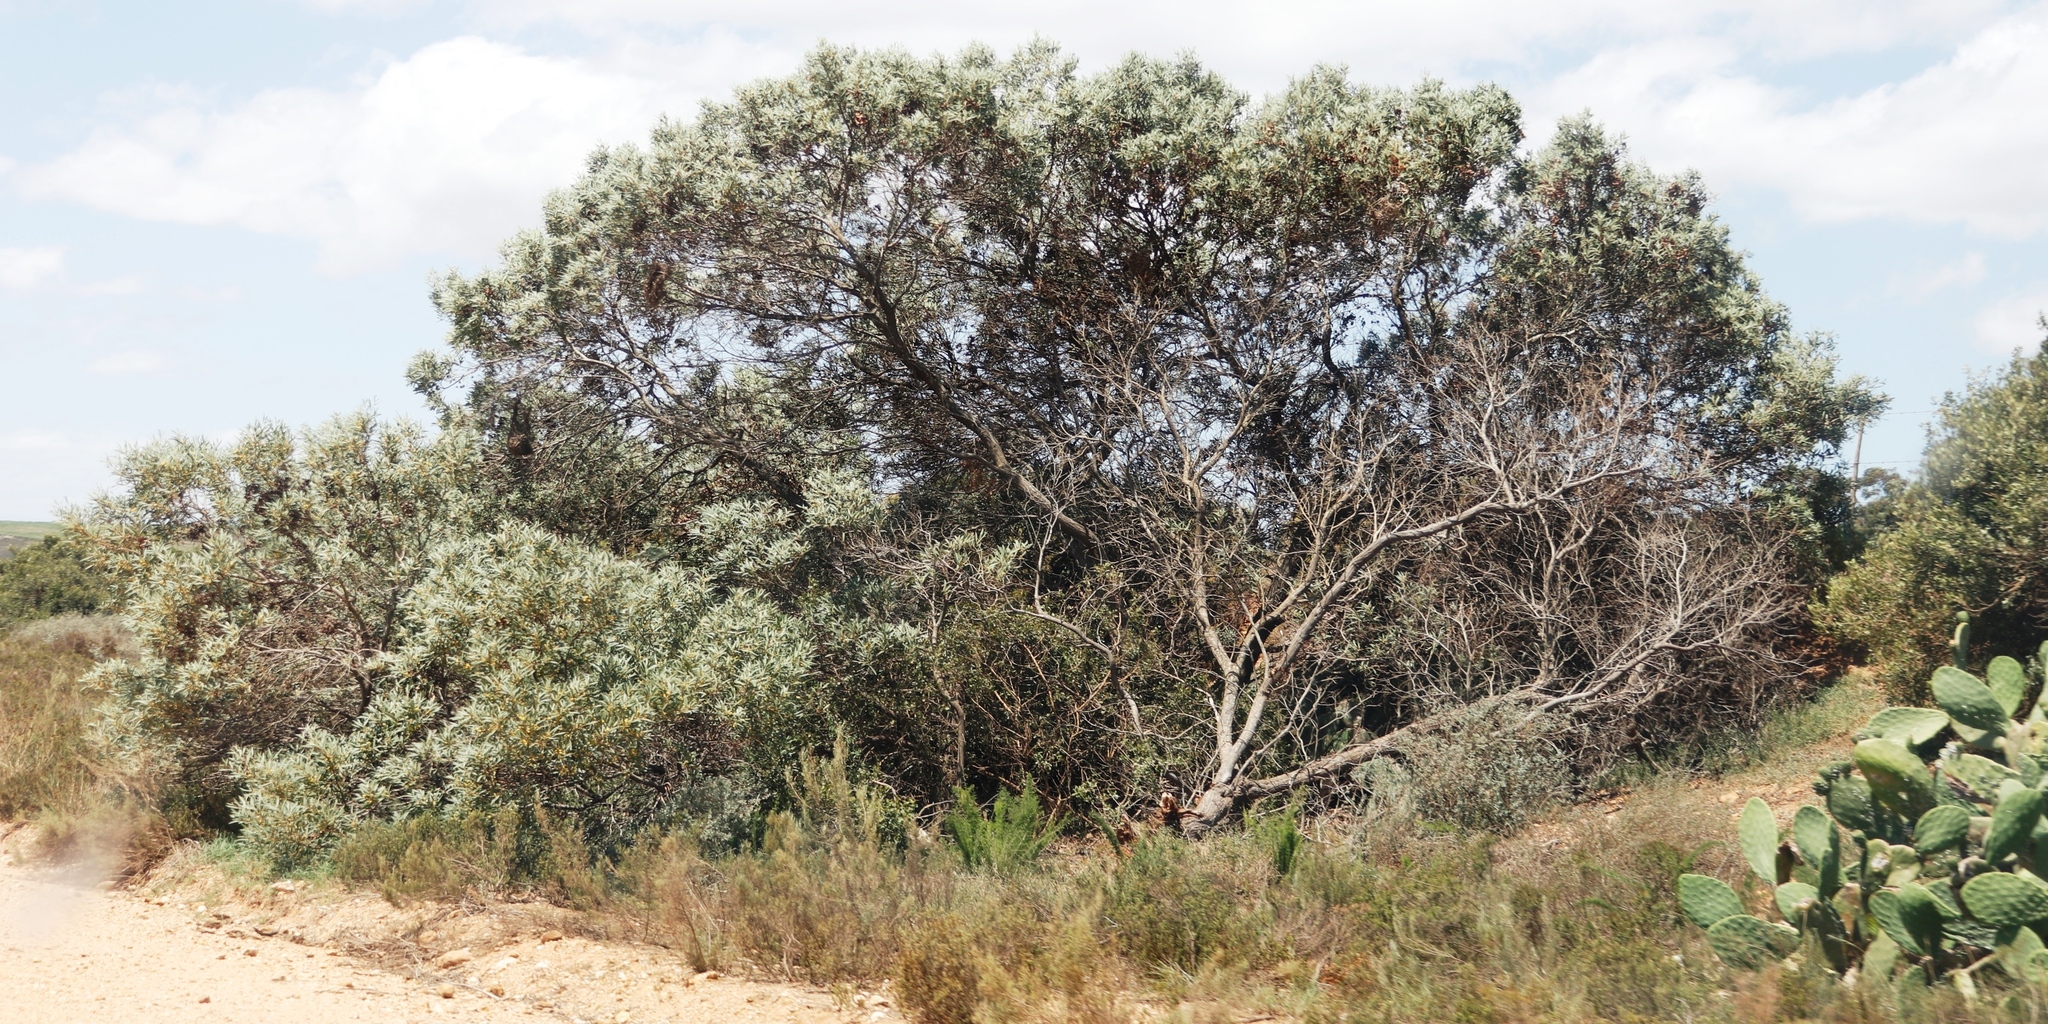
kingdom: Plantae
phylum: Tracheophyta
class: Magnoliopsida
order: Fabales
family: Fabaceae
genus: Acacia
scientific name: Acacia cyclops
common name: Coastal wattle
